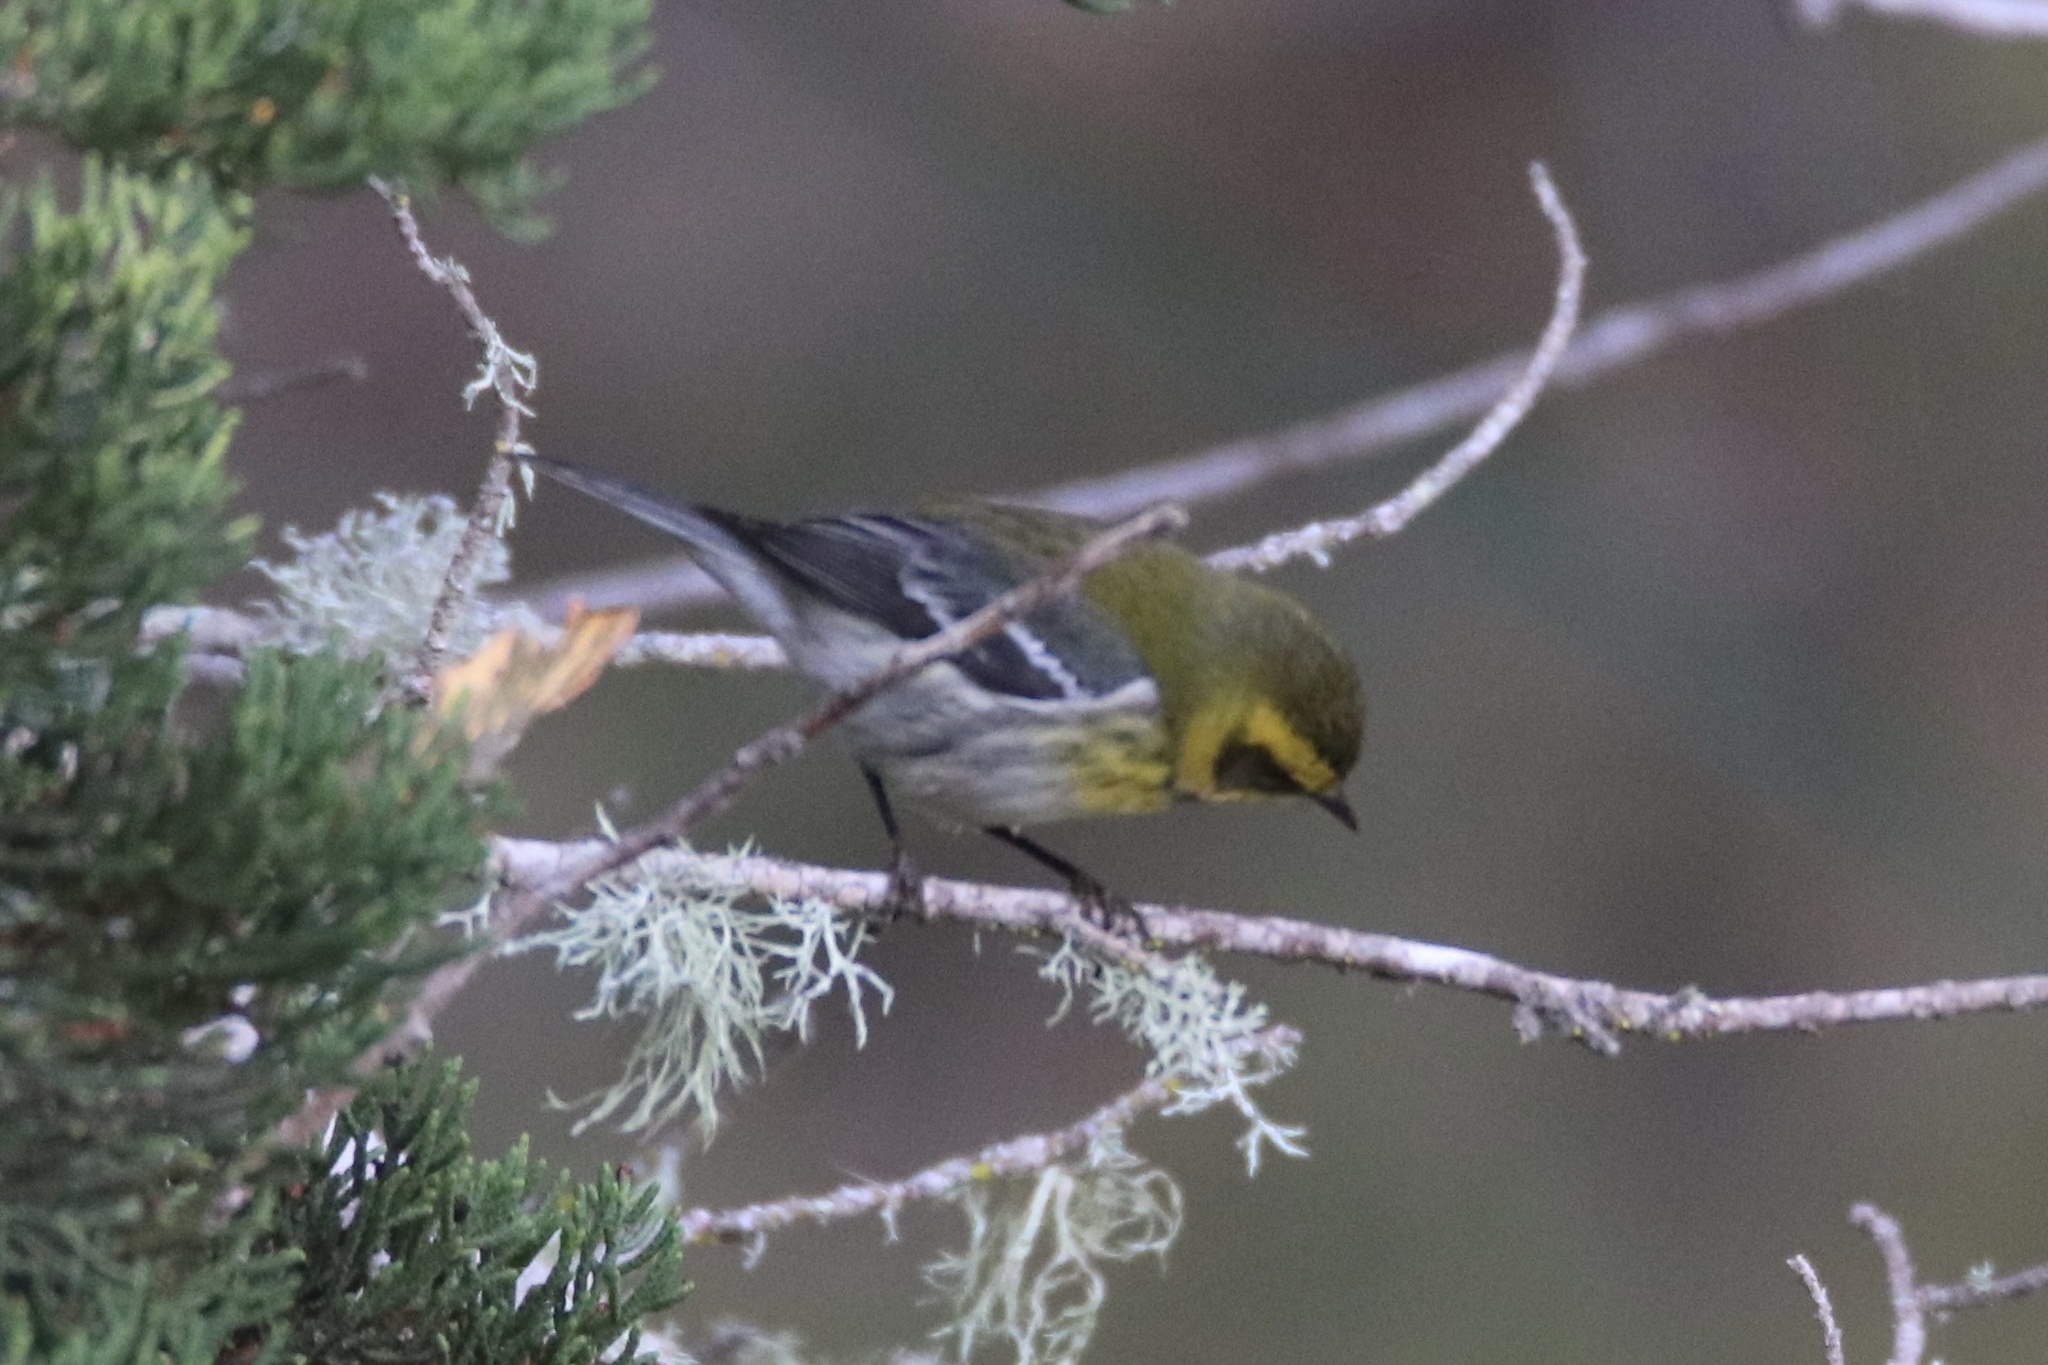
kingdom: Animalia
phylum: Chordata
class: Aves
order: Passeriformes
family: Parulidae
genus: Setophaga
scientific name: Setophaga townsendi
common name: Townsend's warbler
